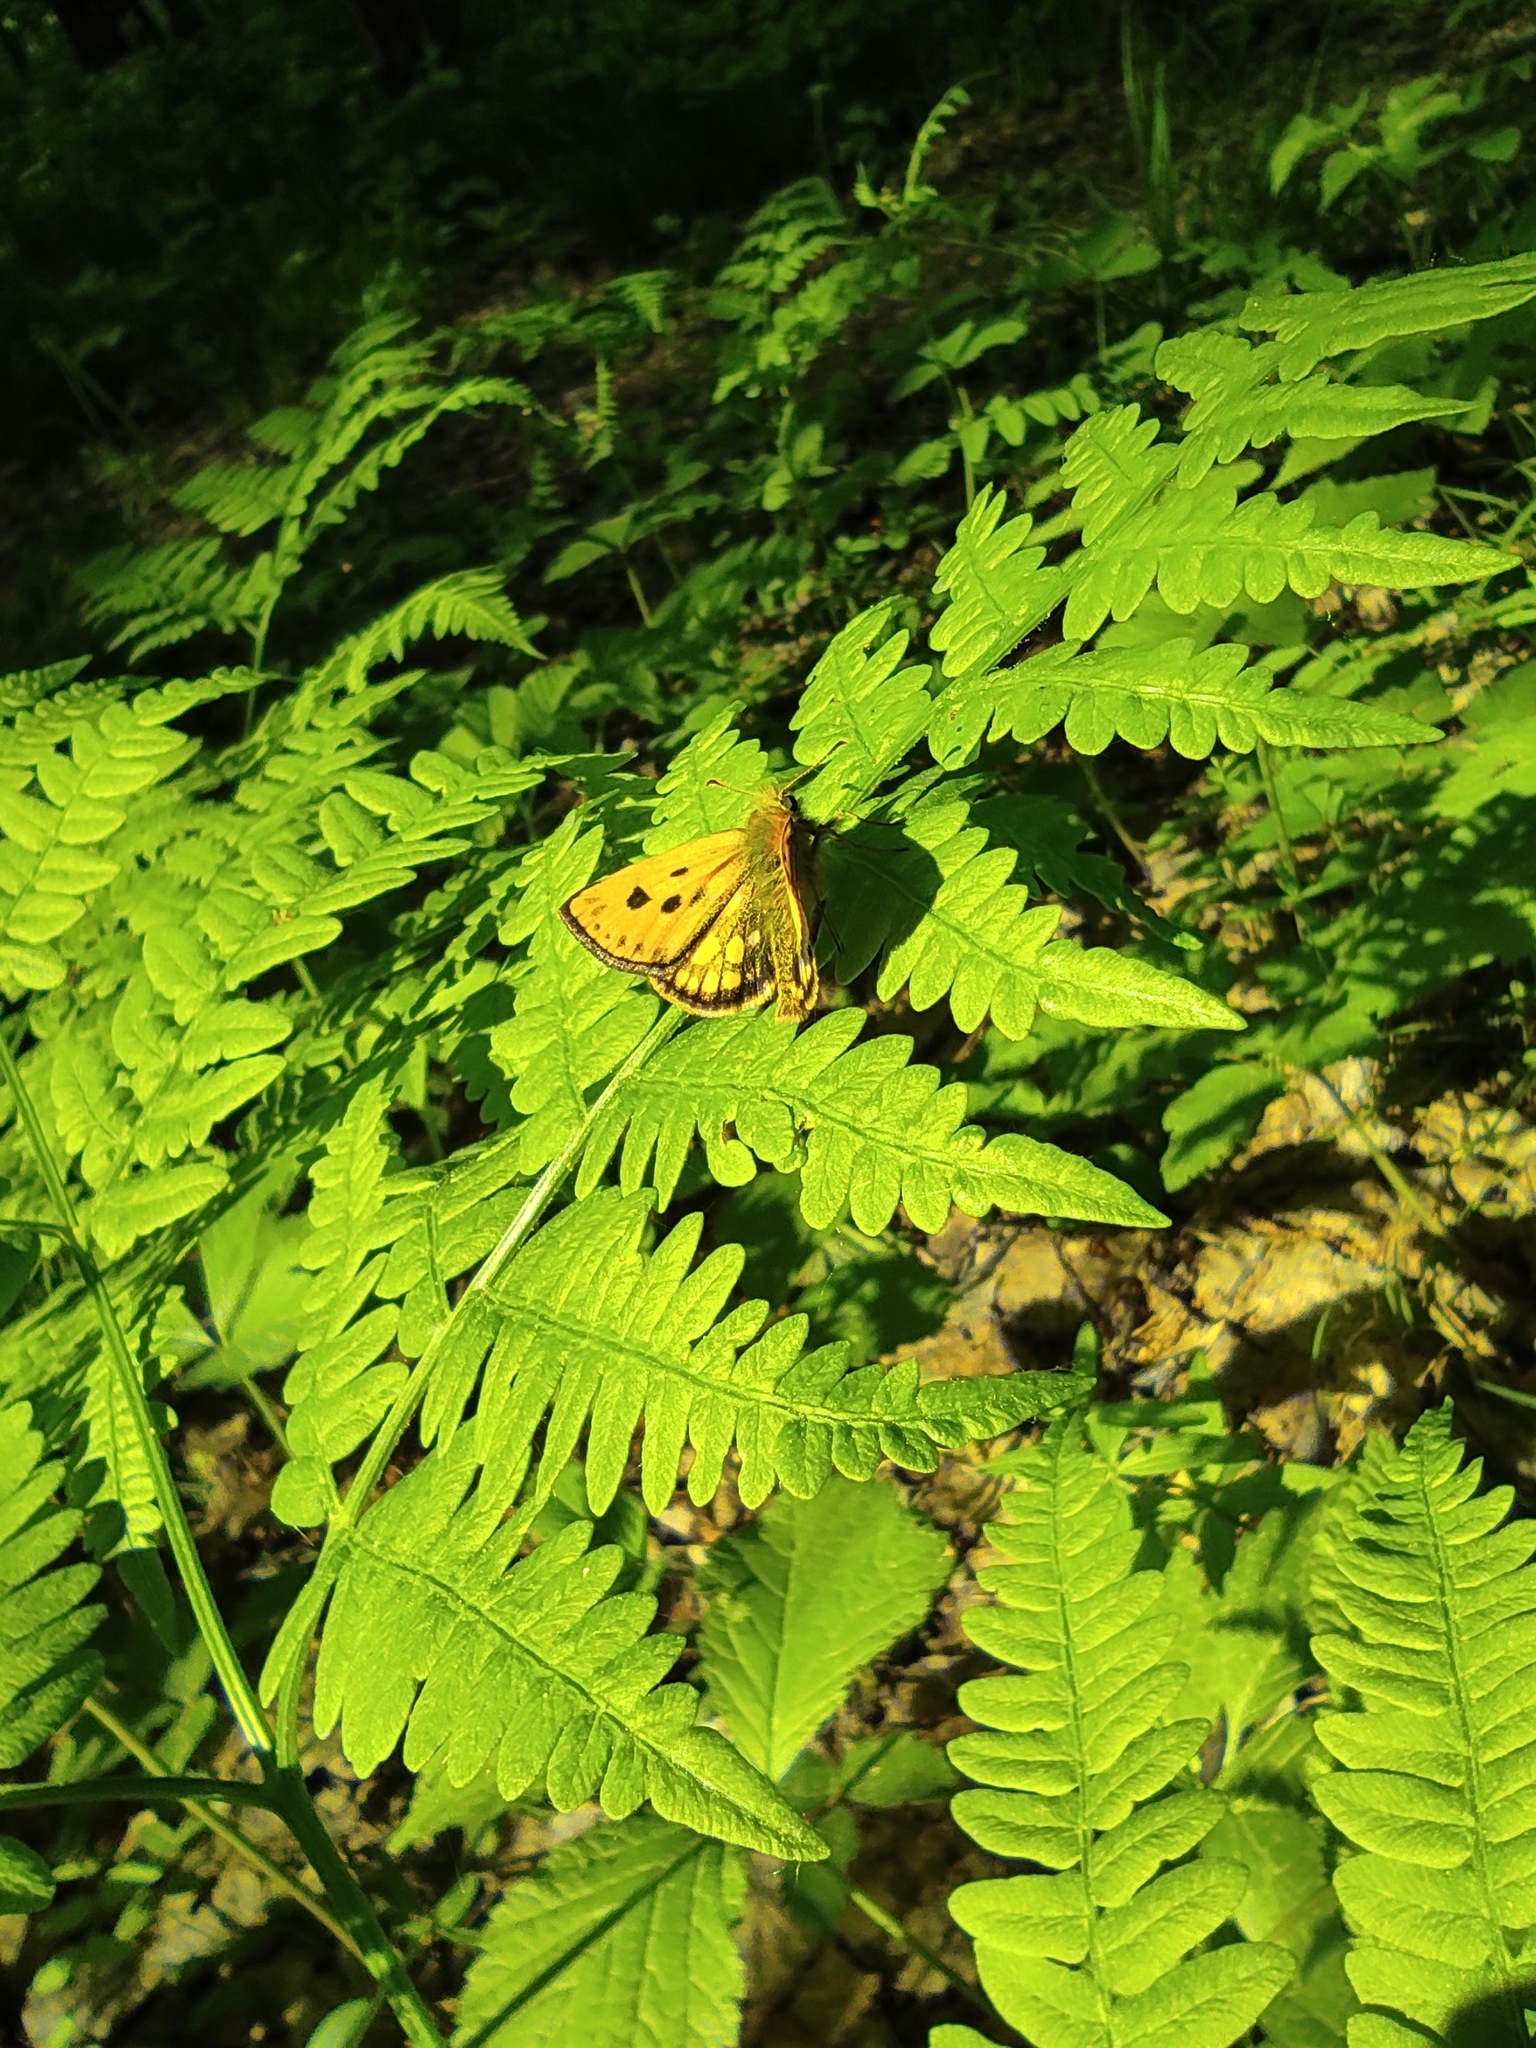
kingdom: Animalia
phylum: Arthropoda
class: Insecta
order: Lepidoptera
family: Hesperiidae
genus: Carterocephalus
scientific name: Carterocephalus silvicola
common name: Northern chequered skipper
